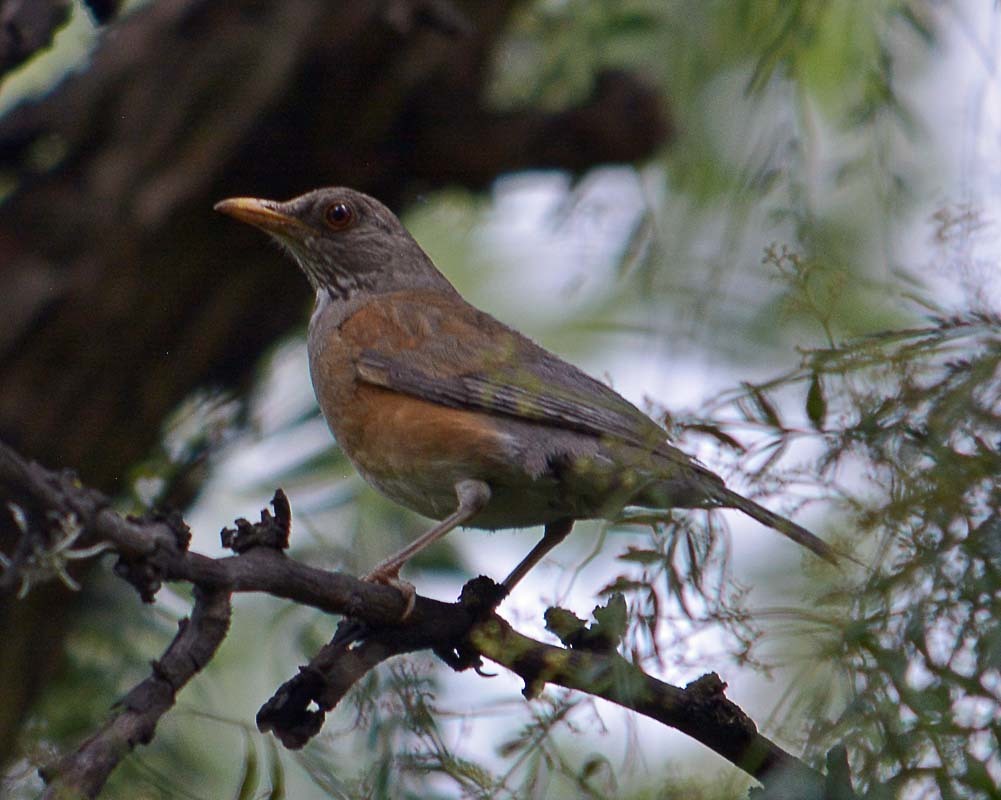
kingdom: Animalia
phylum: Chordata
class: Aves
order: Passeriformes
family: Turdidae
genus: Turdus
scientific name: Turdus rufopalliatus
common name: Rufous-backed robin
